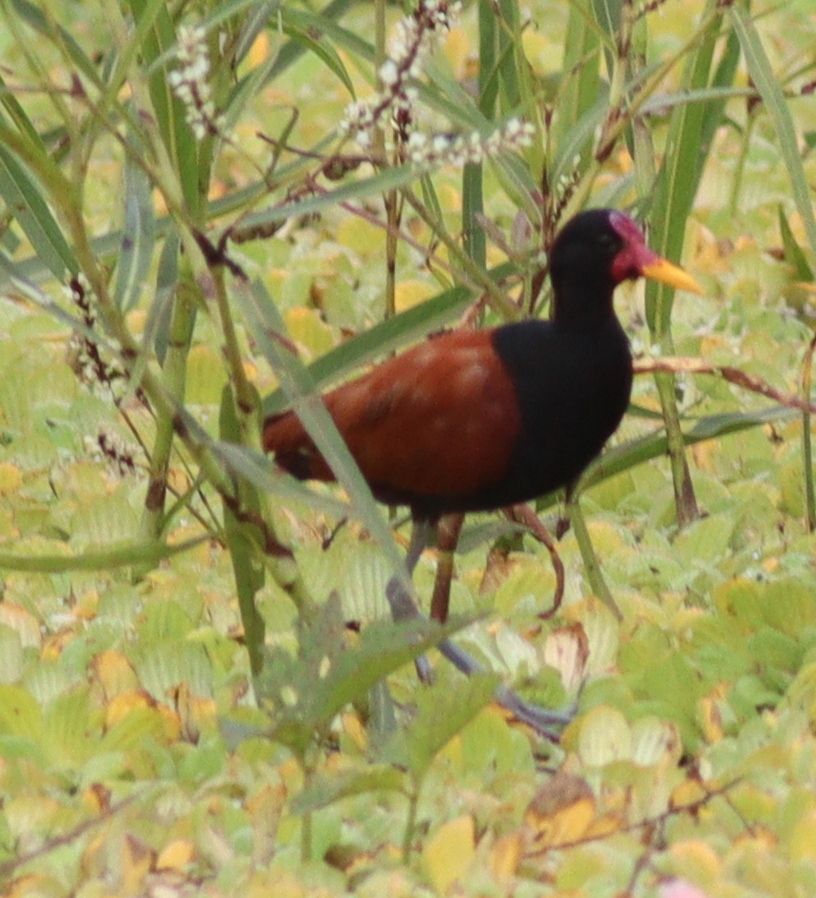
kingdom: Animalia
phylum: Chordata
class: Aves
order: Charadriiformes
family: Jacanidae
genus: Jacana
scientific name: Jacana jacana
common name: Wattled jacana
